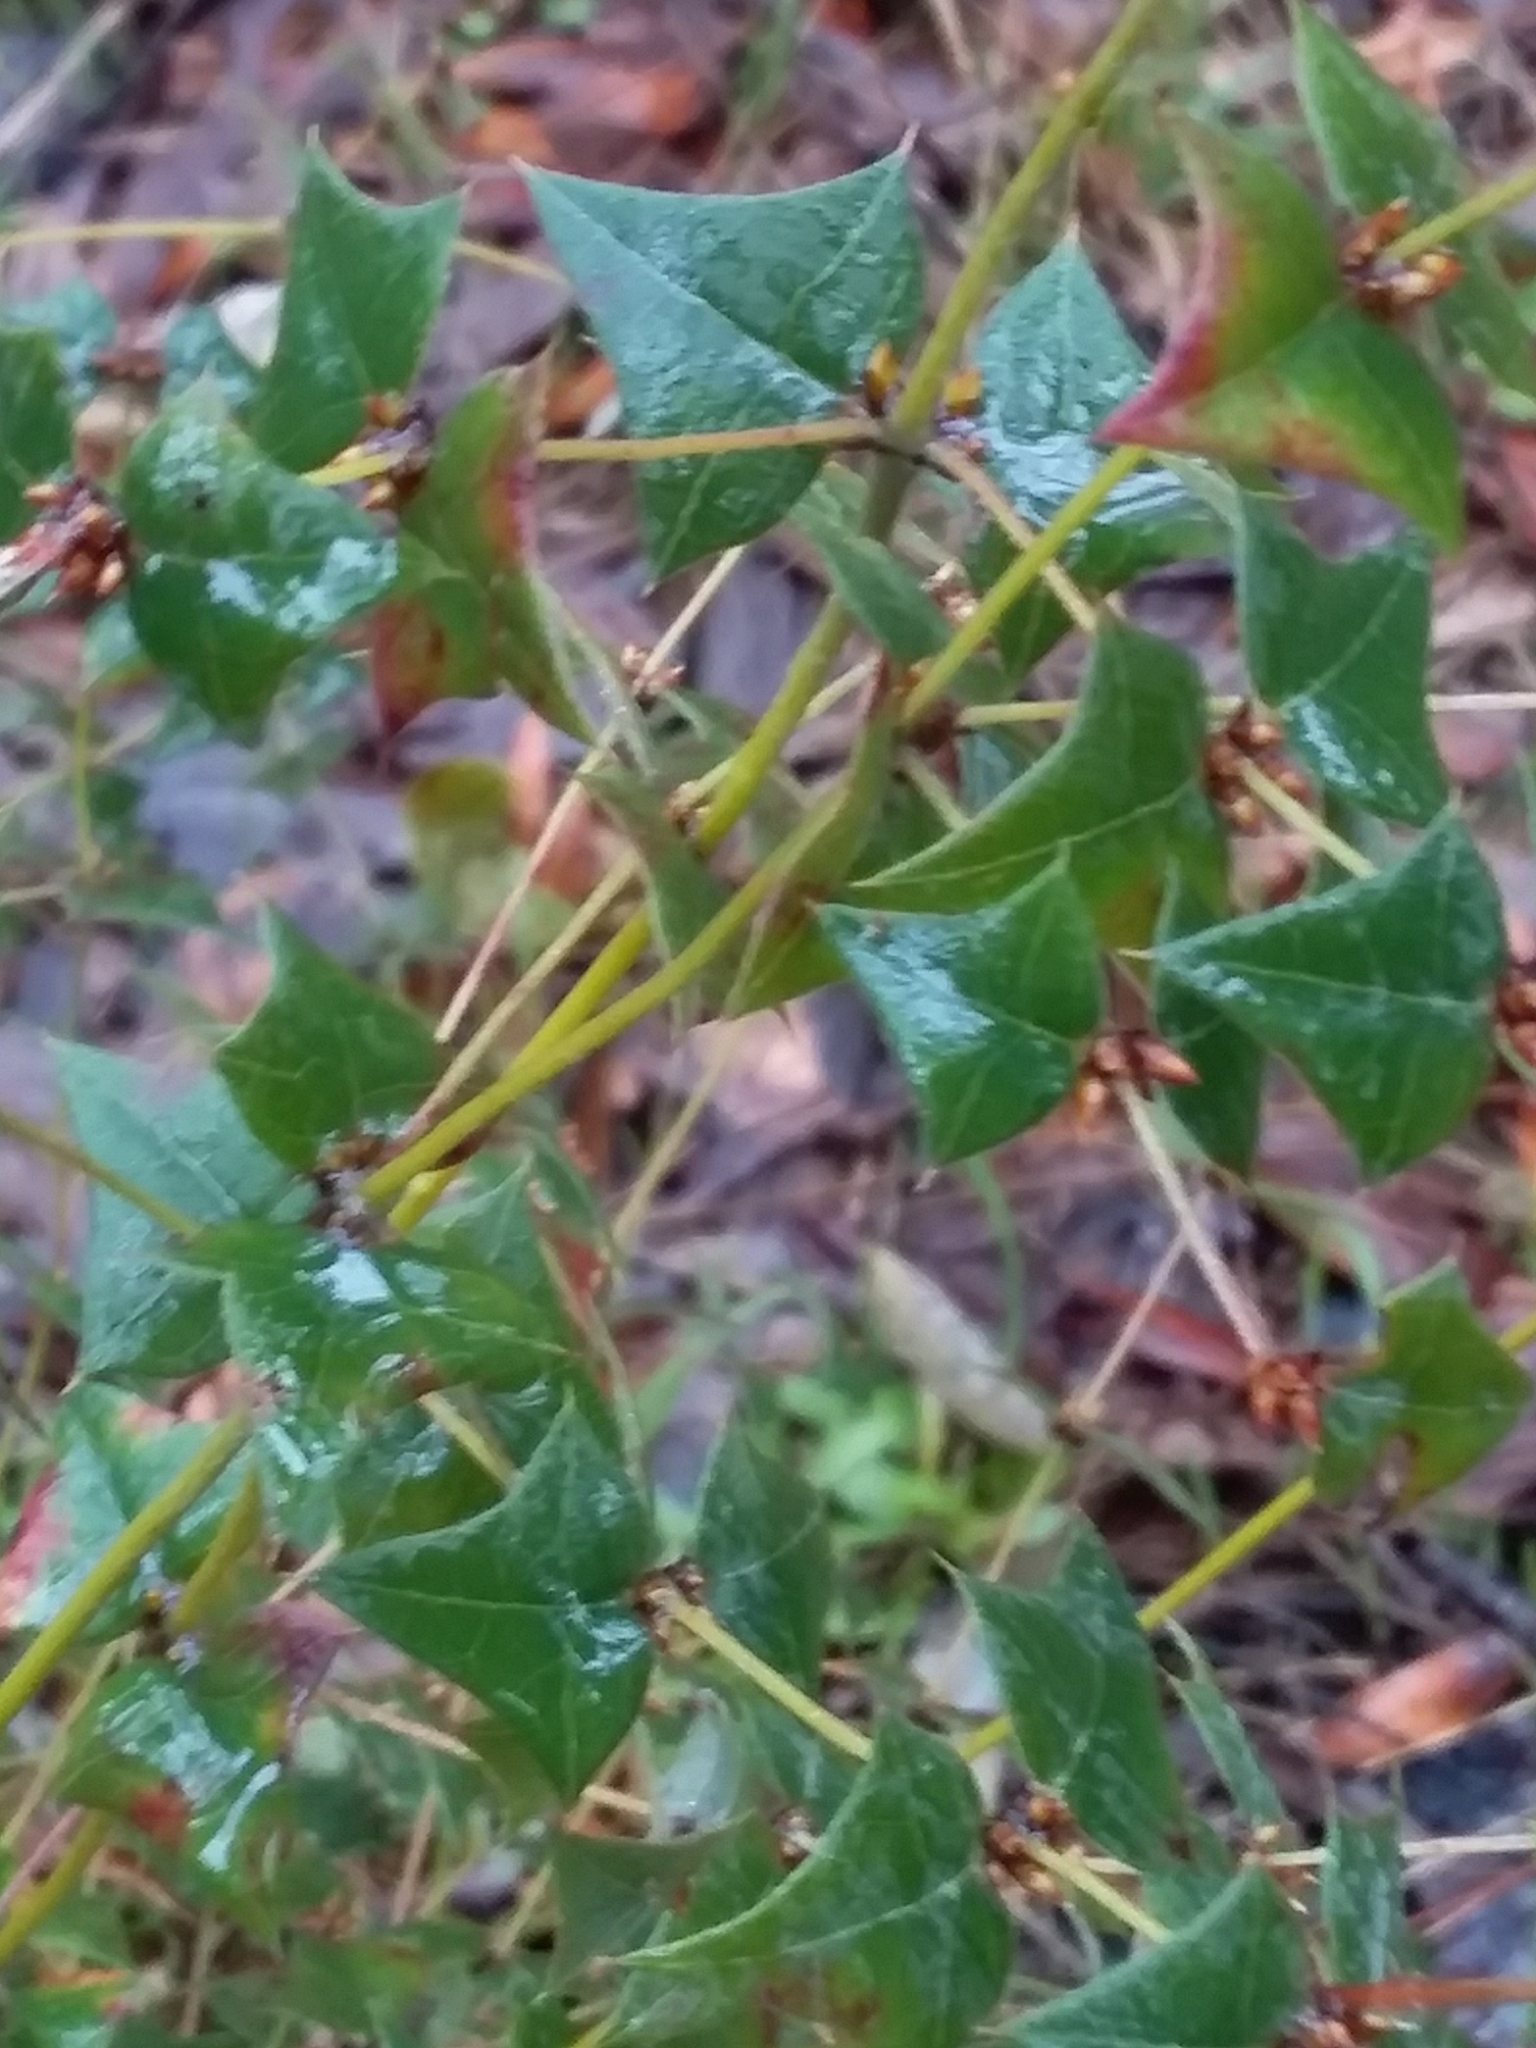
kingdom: Plantae
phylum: Tracheophyta
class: Magnoliopsida
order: Fabales
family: Fabaceae
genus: Platylobium
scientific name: Platylobium obtusangulum
